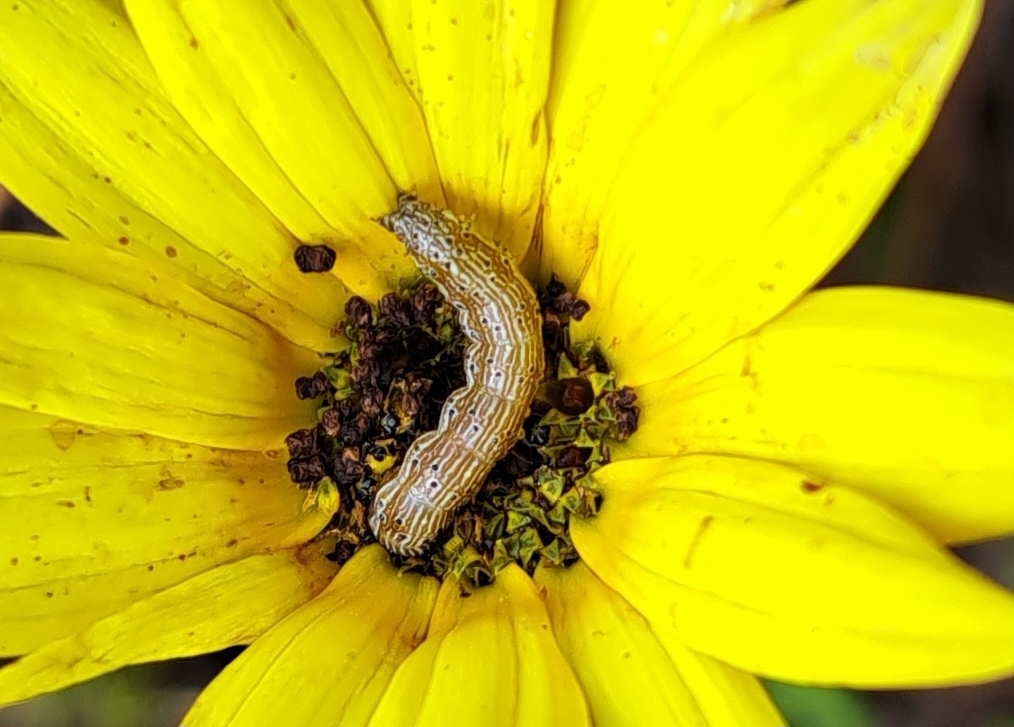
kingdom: Animalia
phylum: Arthropoda
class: Insecta
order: Lepidoptera
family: Noctuidae
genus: Helicoverpa
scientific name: Helicoverpa armigera
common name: Cotton bollworm
